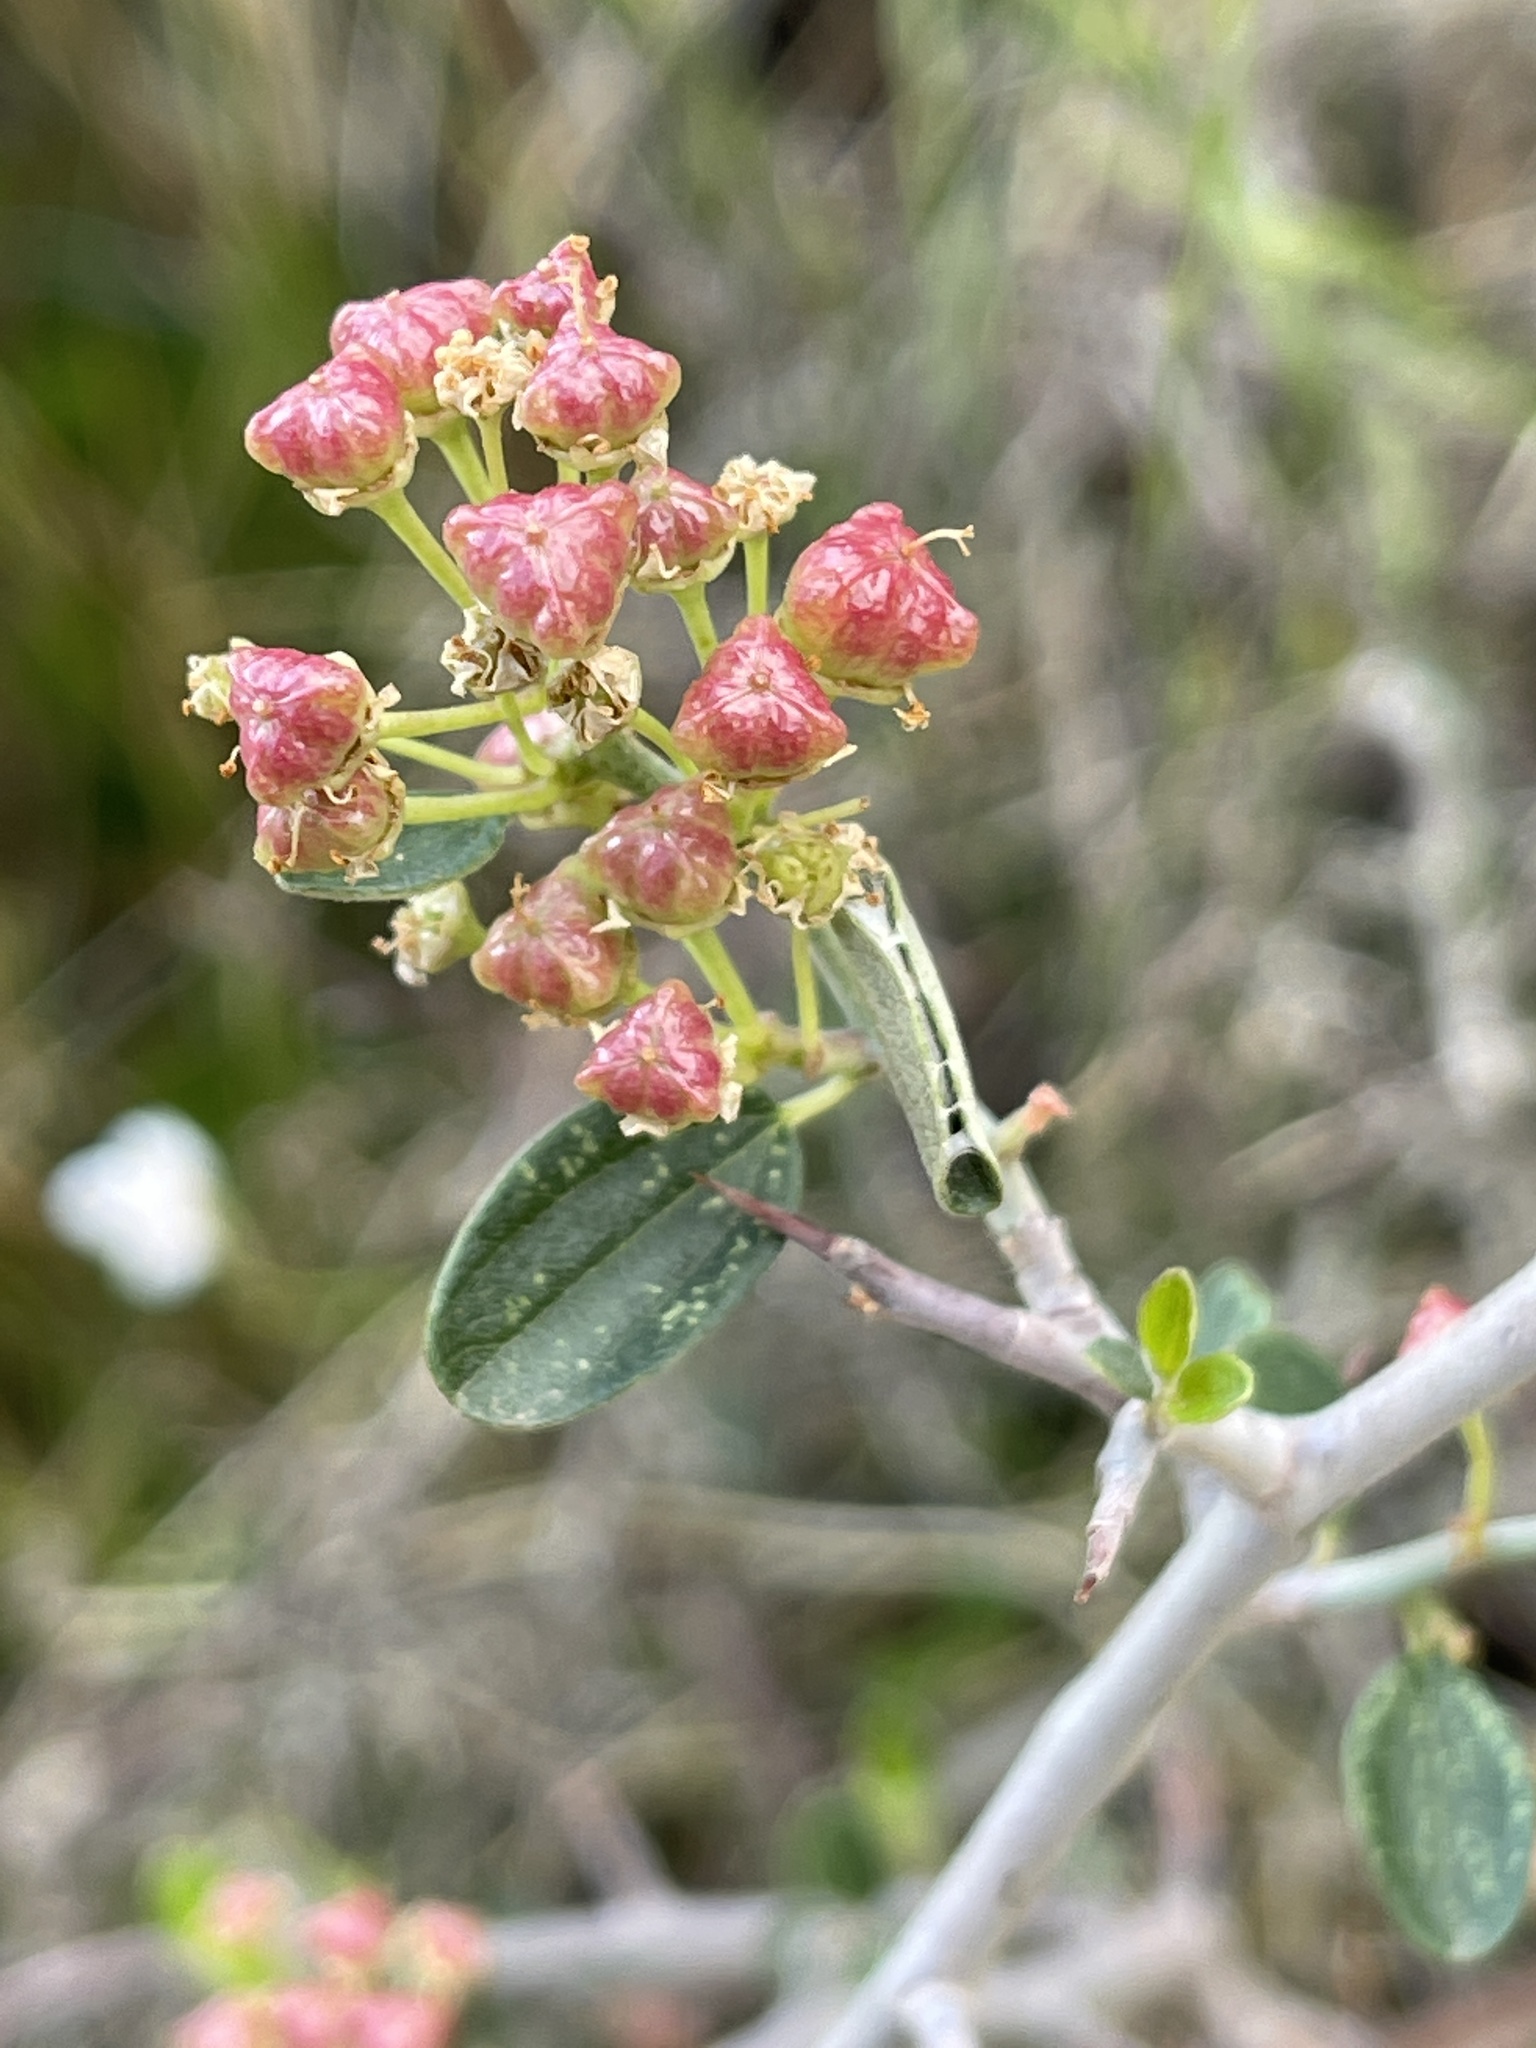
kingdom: Plantae
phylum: Tracheophyta
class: Magnoliopsida
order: Rosales
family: Rhamnaceae
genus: Ceanothus
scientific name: Ceanothus fendleri
